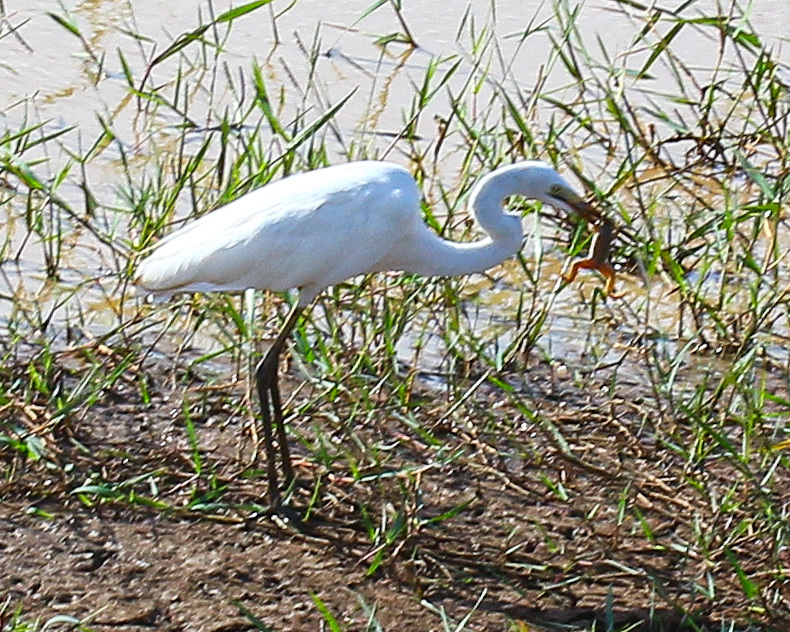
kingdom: Animalia
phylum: Chordata
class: Aves
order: Pelecaniformes
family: Ardeidae
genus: Ardea
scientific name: Ardea alba
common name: Great egret
